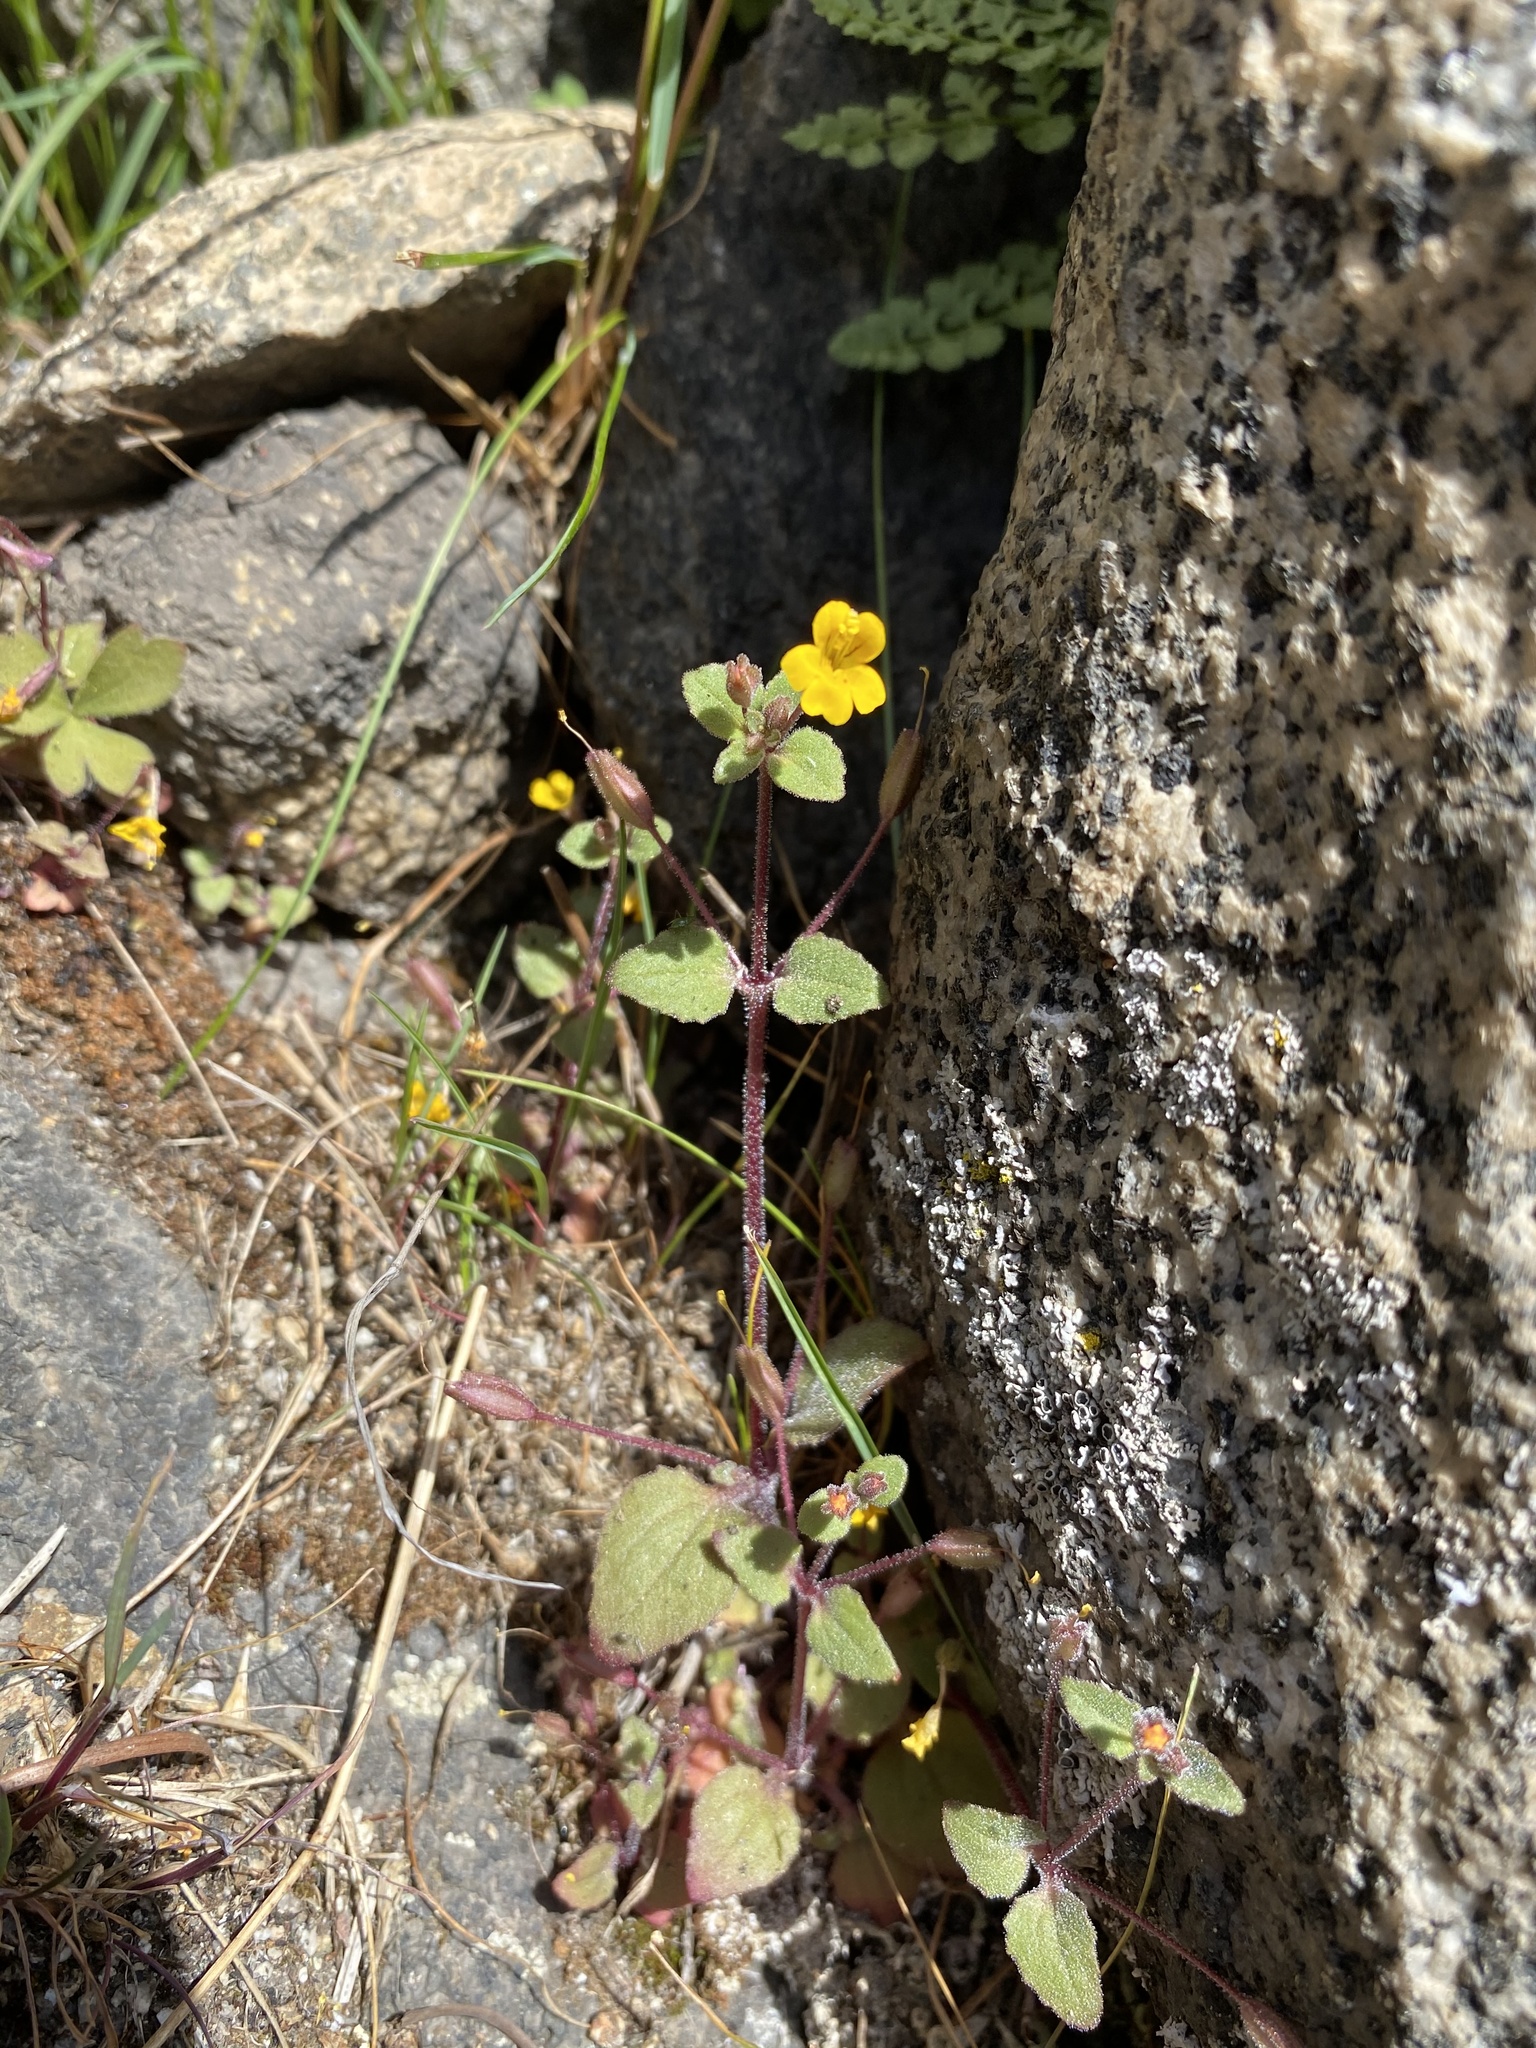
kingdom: Plantae
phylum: Tracheophyta
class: Magnoliopsida
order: Lamiales
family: Phrymaceae
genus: Erythranthe
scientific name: Erythranthe alsinoides
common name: Chickweed monkeyflower
